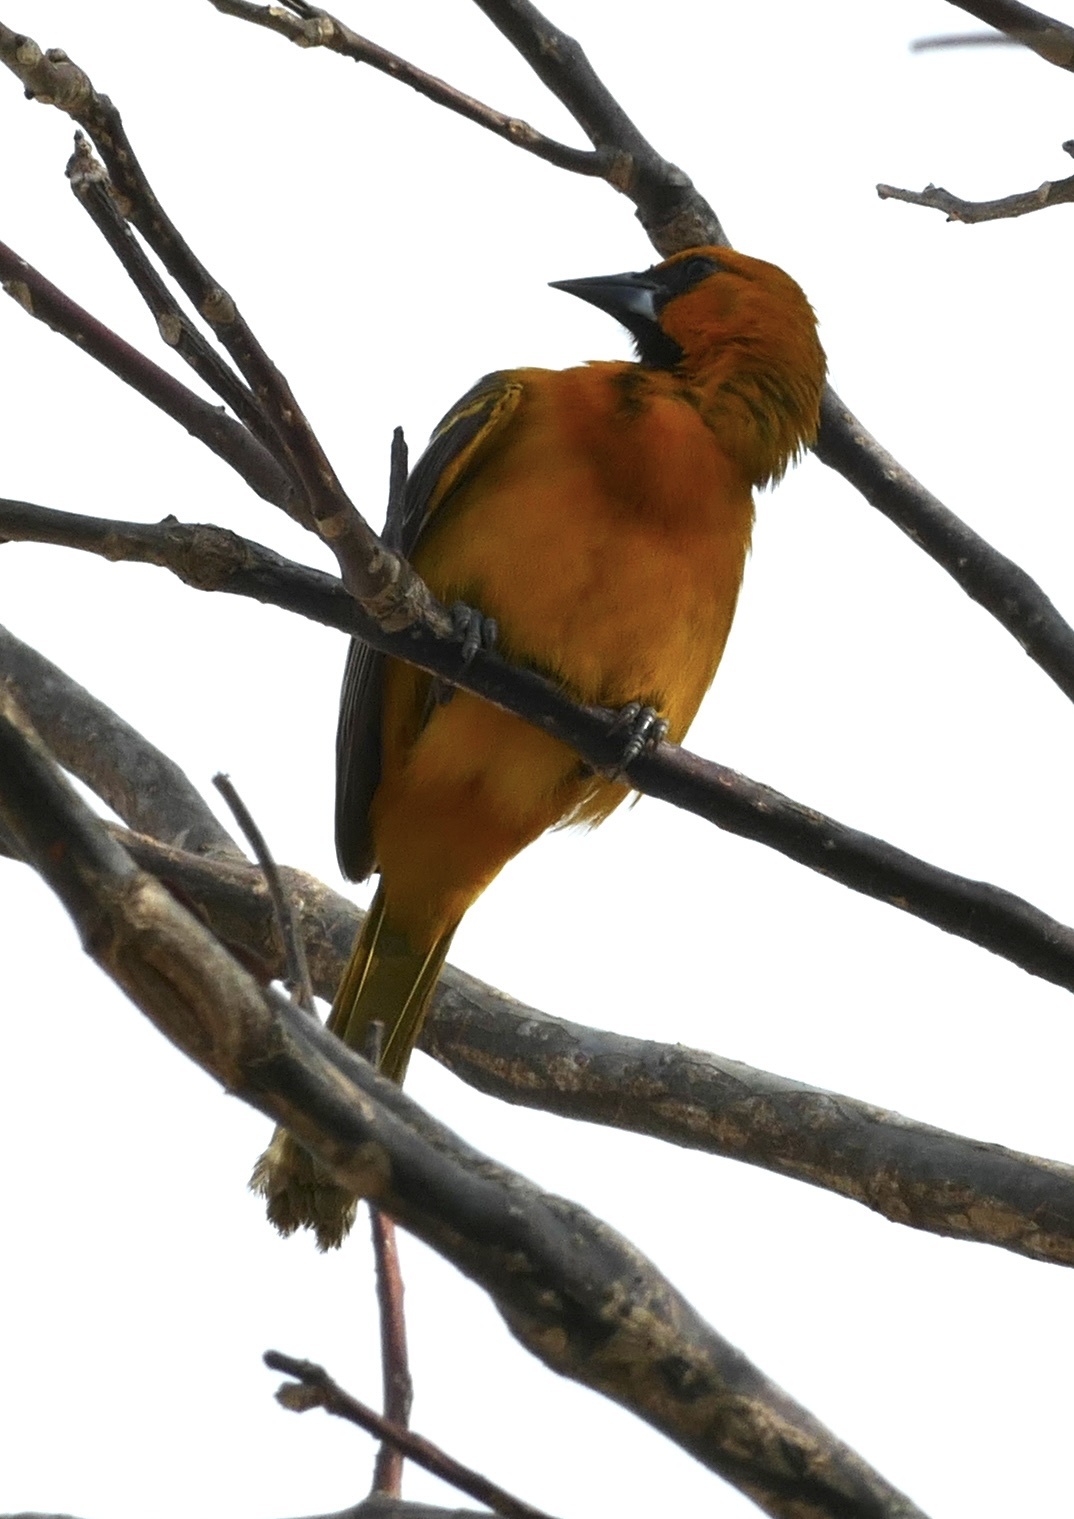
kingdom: Animalia
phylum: Chordata
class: Aves
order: Passeriformes
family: Icteridae
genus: Icterus
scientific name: Icterus gularis
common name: Altamira oriole
